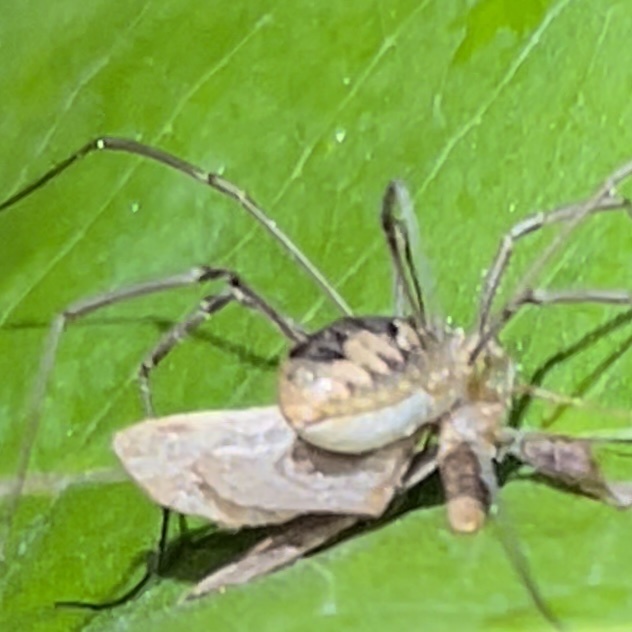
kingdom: Animalia
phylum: Arthropoda
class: Arachnida
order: Opiliones
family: Phalangiidae
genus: Phalangium
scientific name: Phalangium opilio
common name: Daddy longleg
